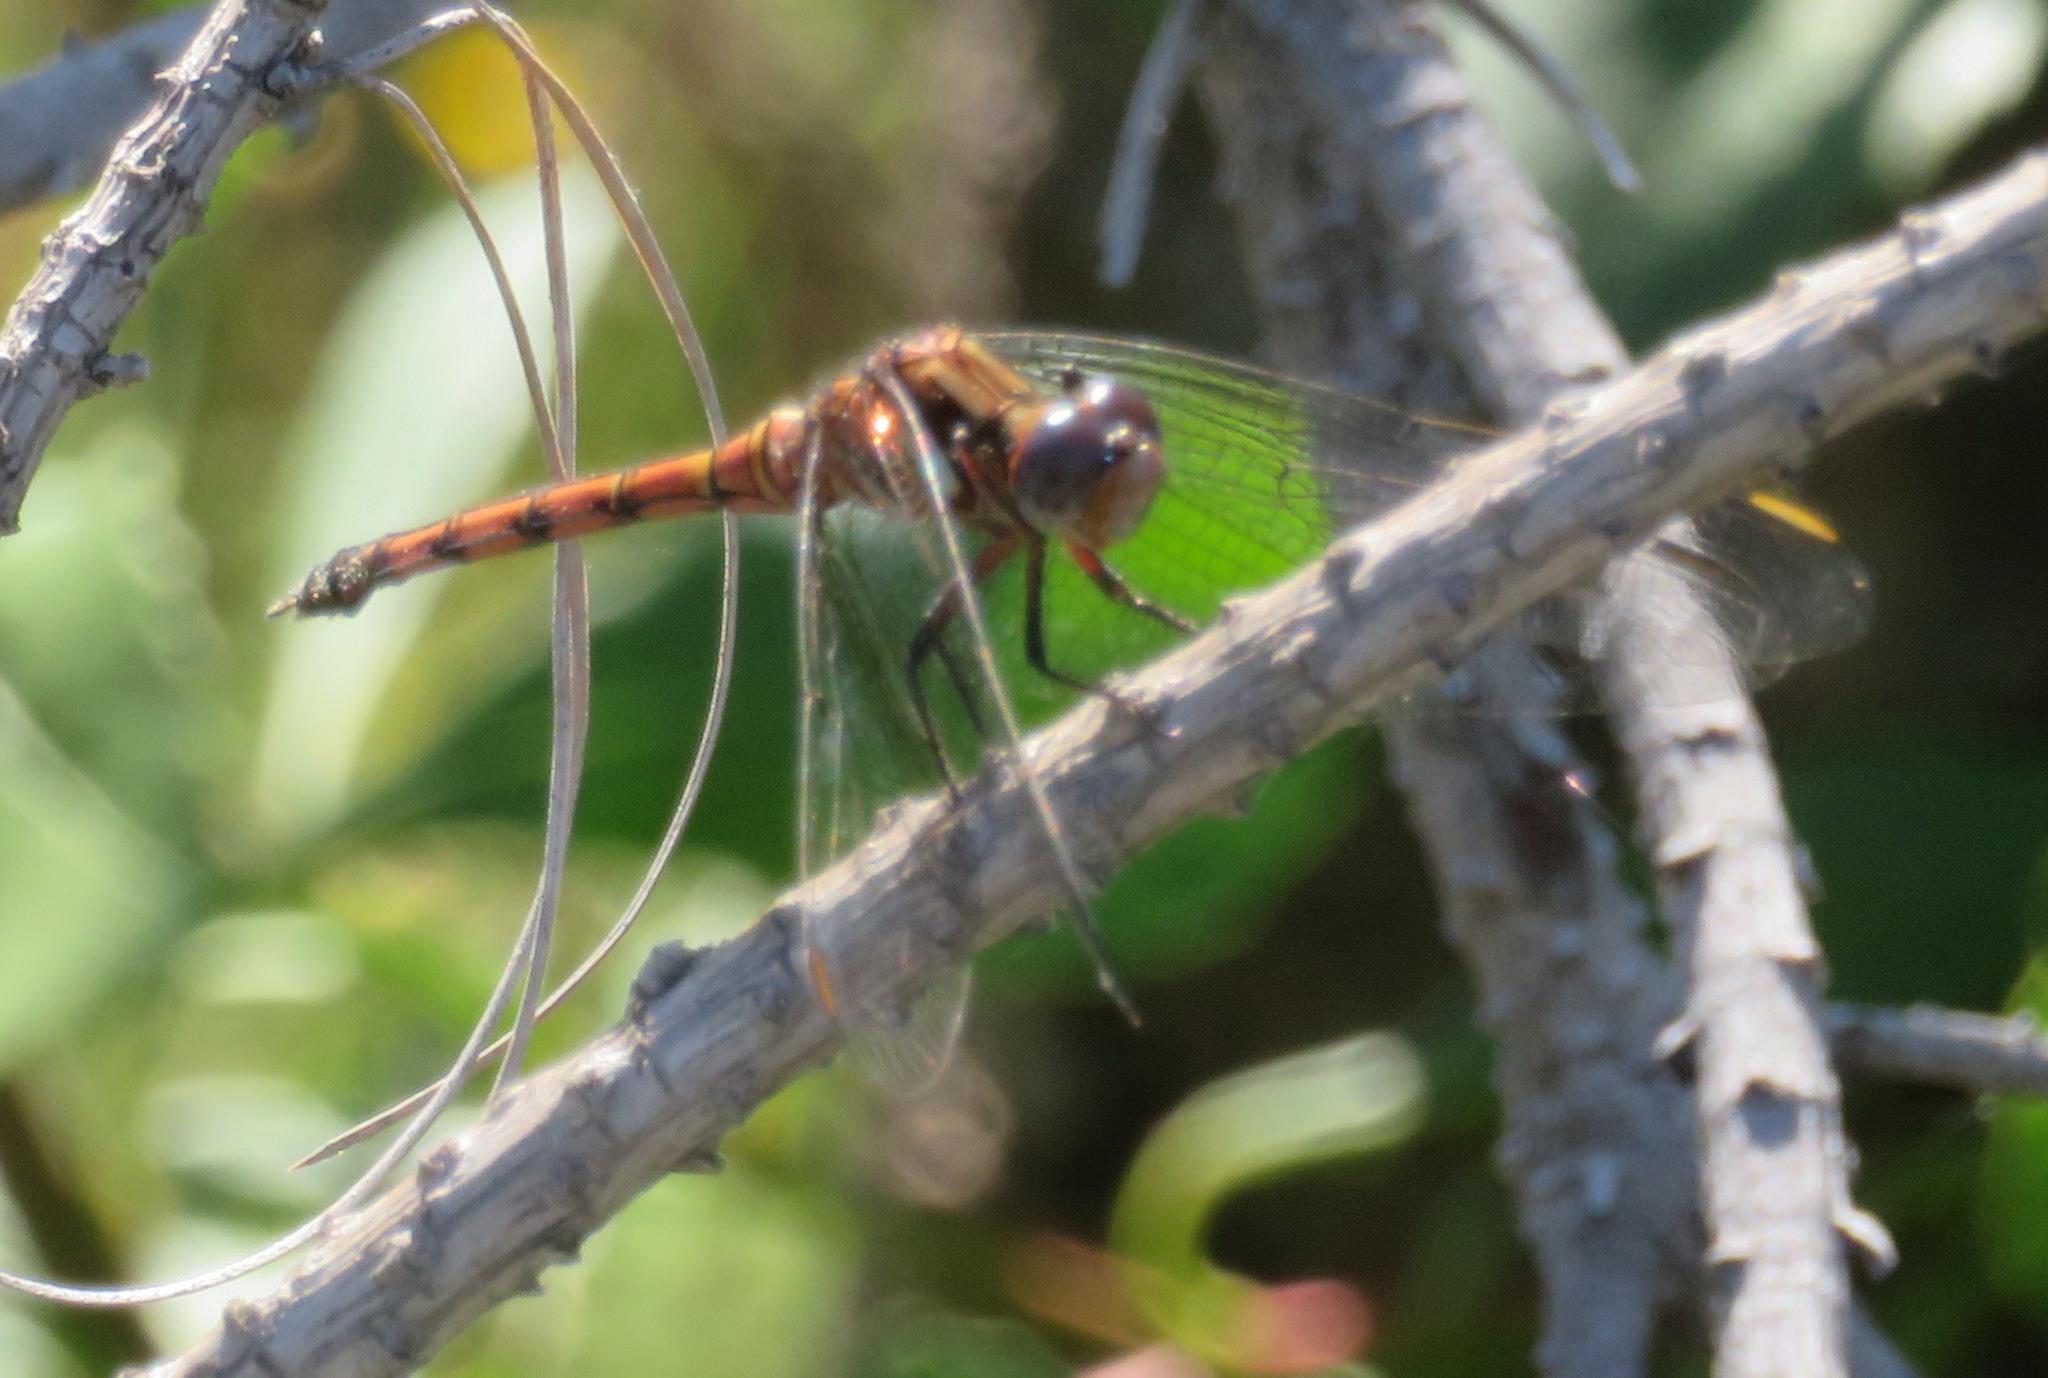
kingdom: Animalia
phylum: Arthropoda
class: Insecta
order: Odonata
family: Libellulidae
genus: Orthetrum
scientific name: Orthetrum julia
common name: Julia skimmer
